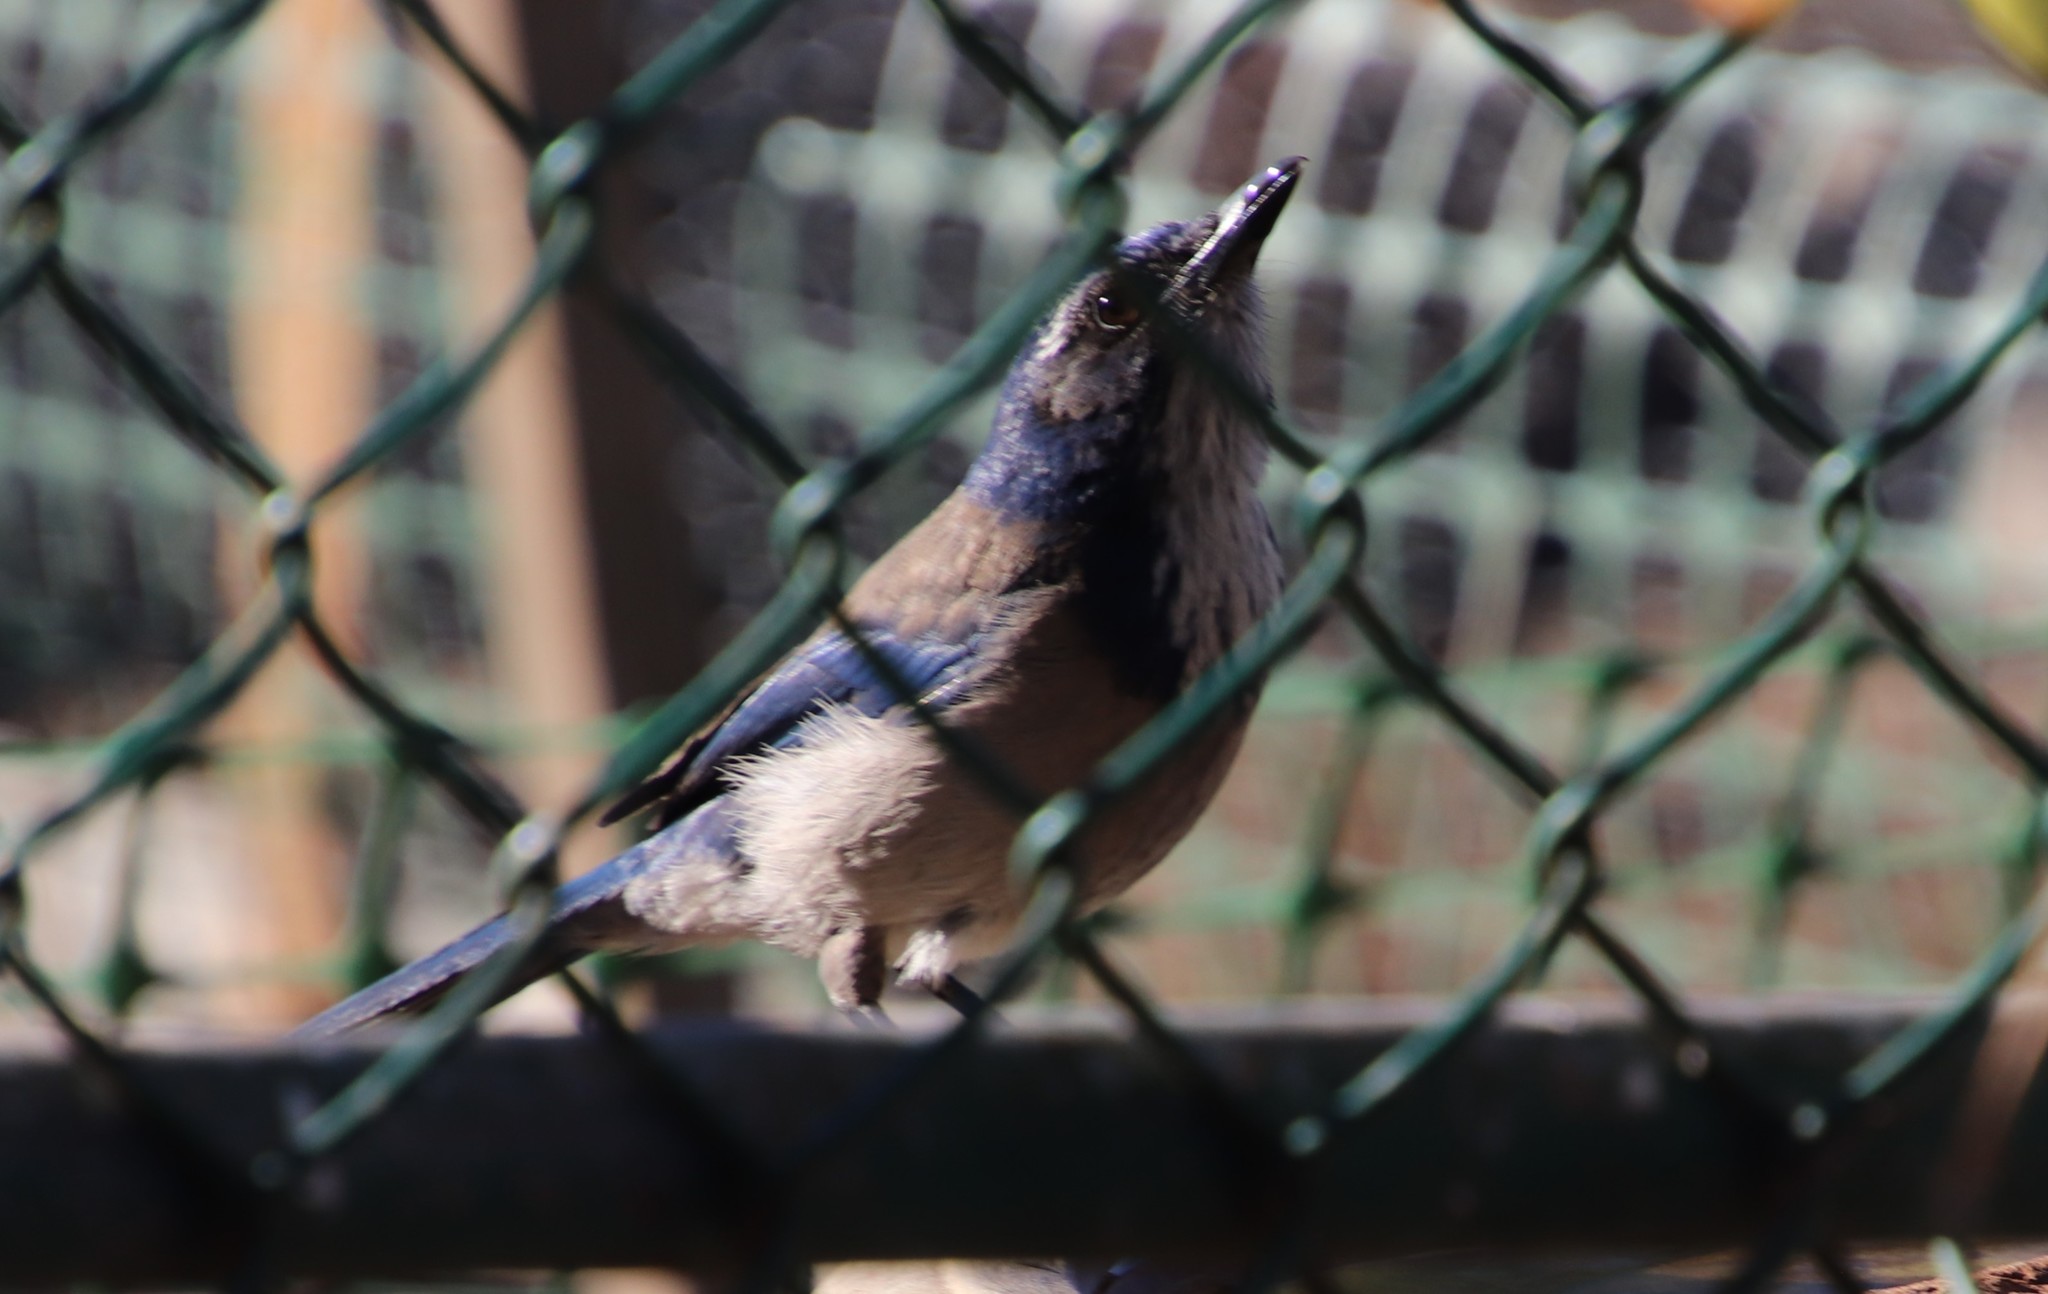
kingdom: Animalia
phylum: Chordata
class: Aves
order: Passeriformes
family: Corvidae
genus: Aphelocoma
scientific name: Aphelocoma californica
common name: California scrub-jay
